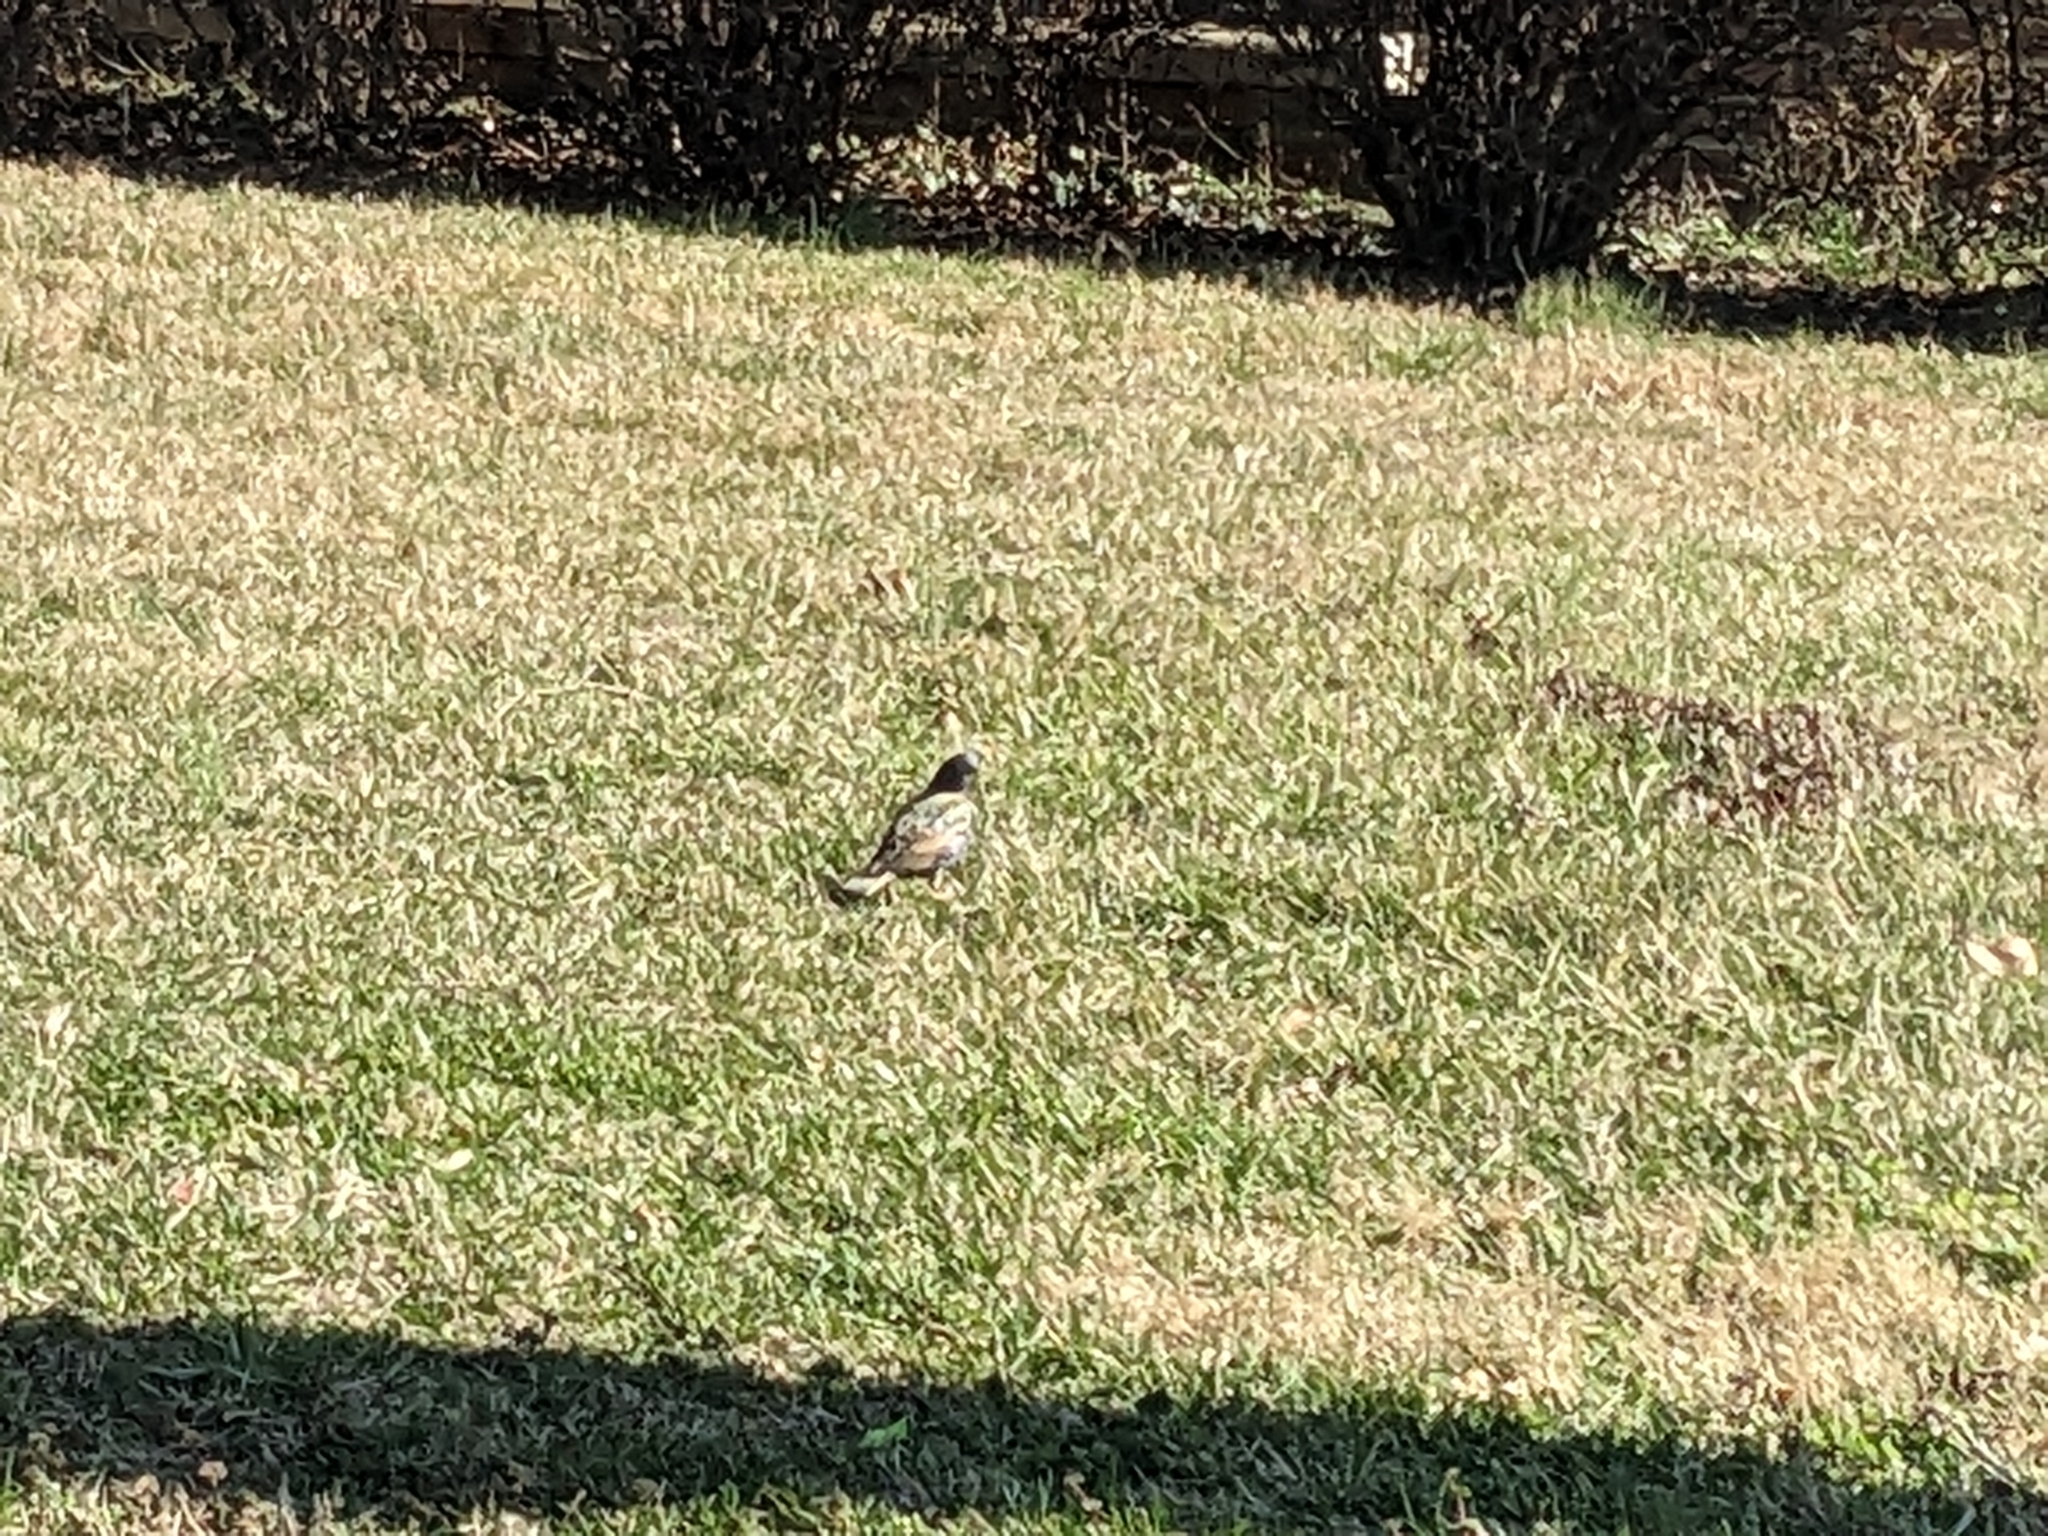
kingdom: Animalia
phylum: Chordata
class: Aves
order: Passeriformes
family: Sturnidae
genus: Sturnus
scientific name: Sturnus vulgaris
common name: Common starling
